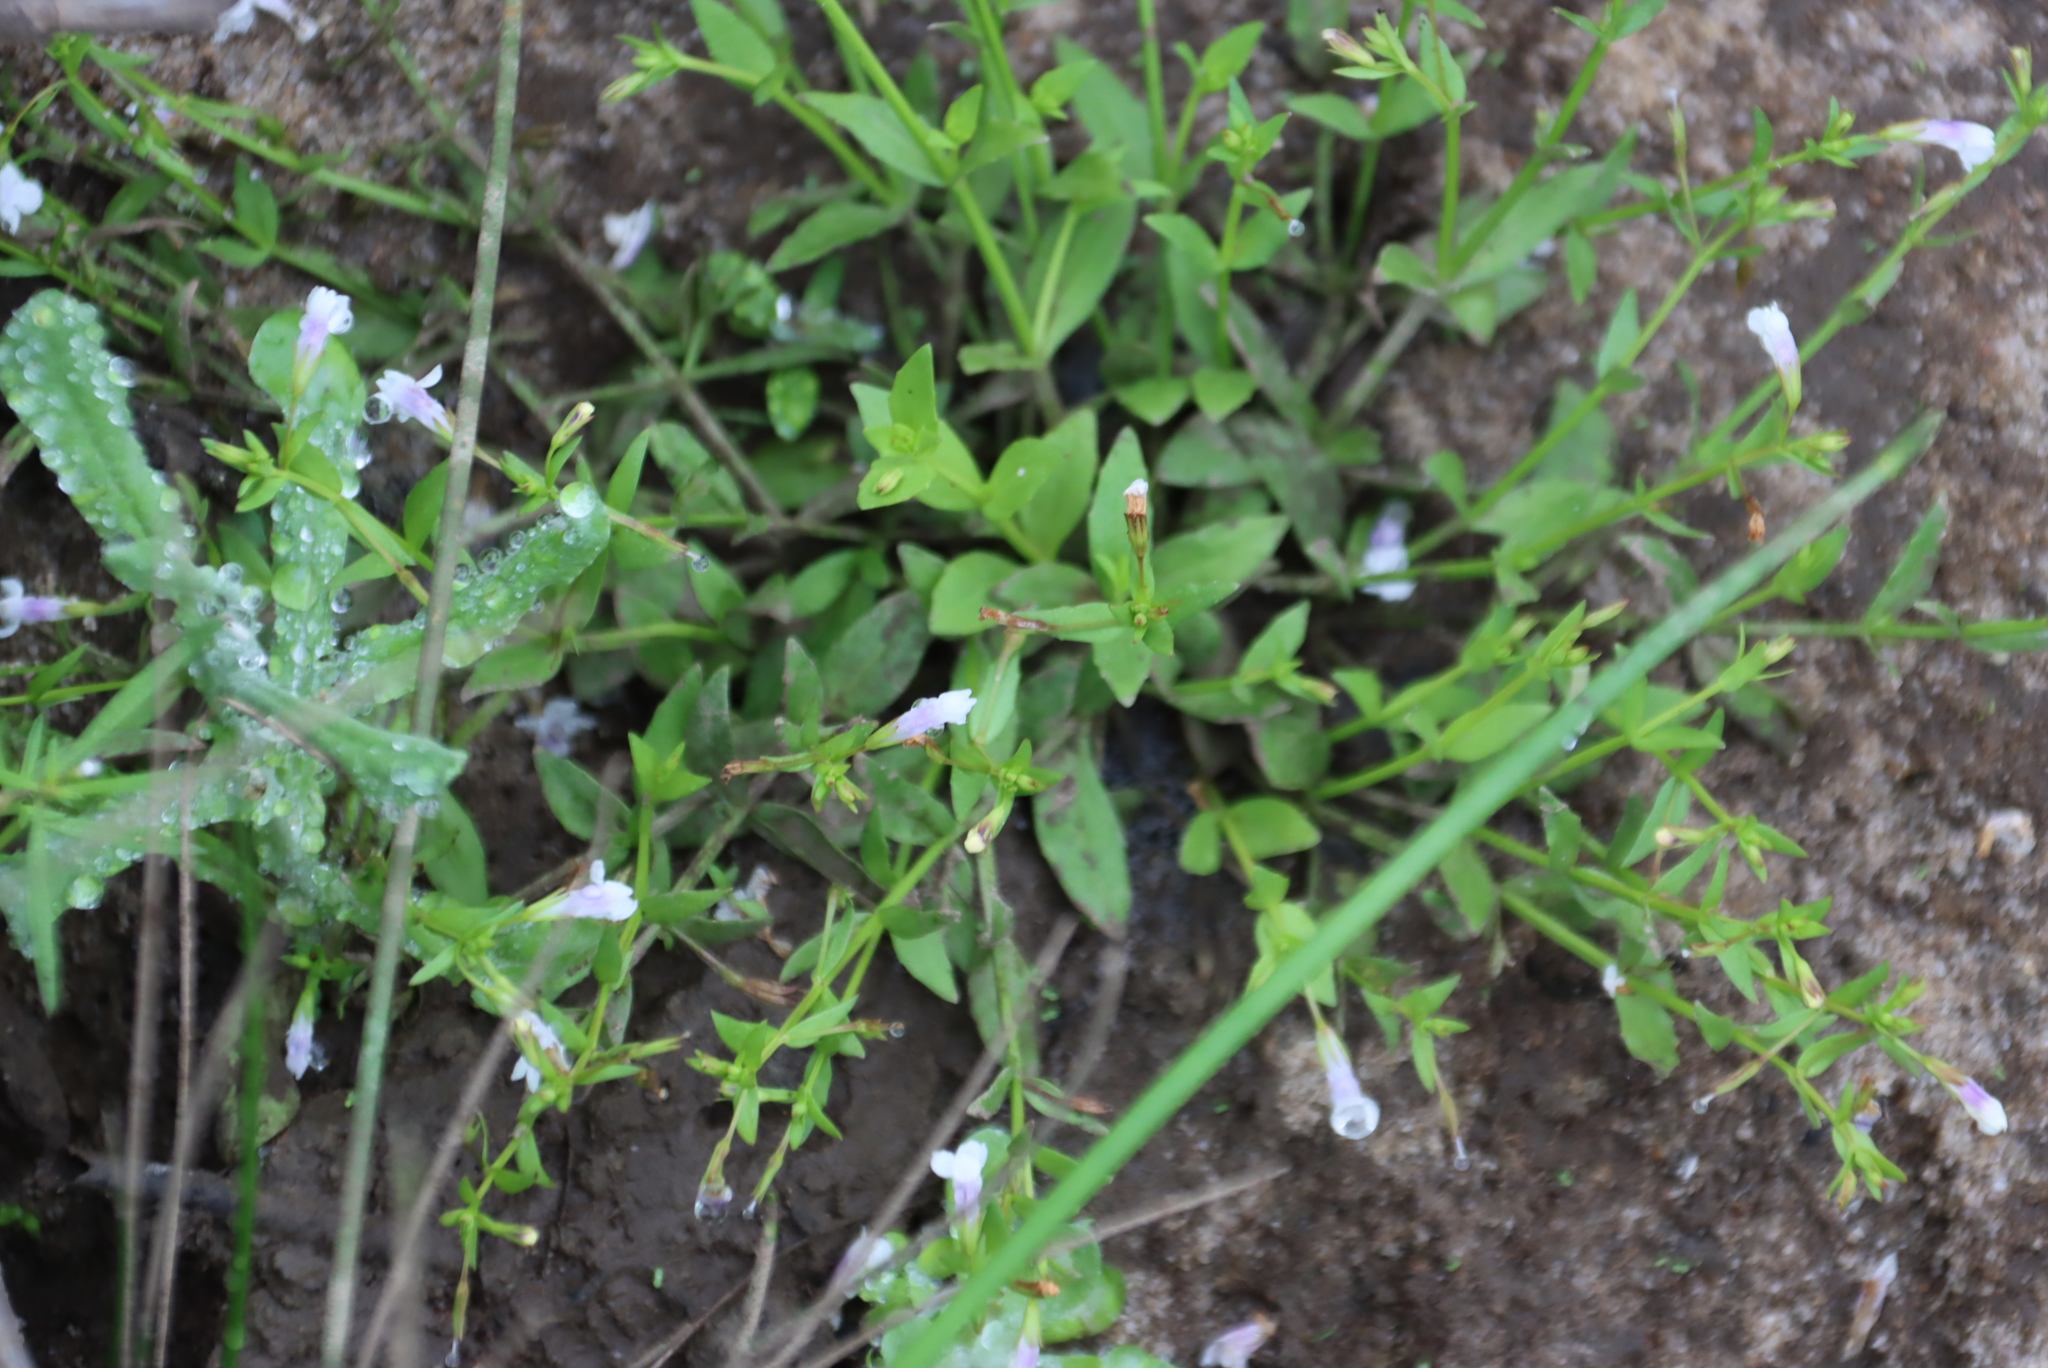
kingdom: Plantae
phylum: Tracheophyta
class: Magnoliopsida
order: Lamiales
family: Linderniaceae
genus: Lindernia
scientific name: Lindernia parviflora
